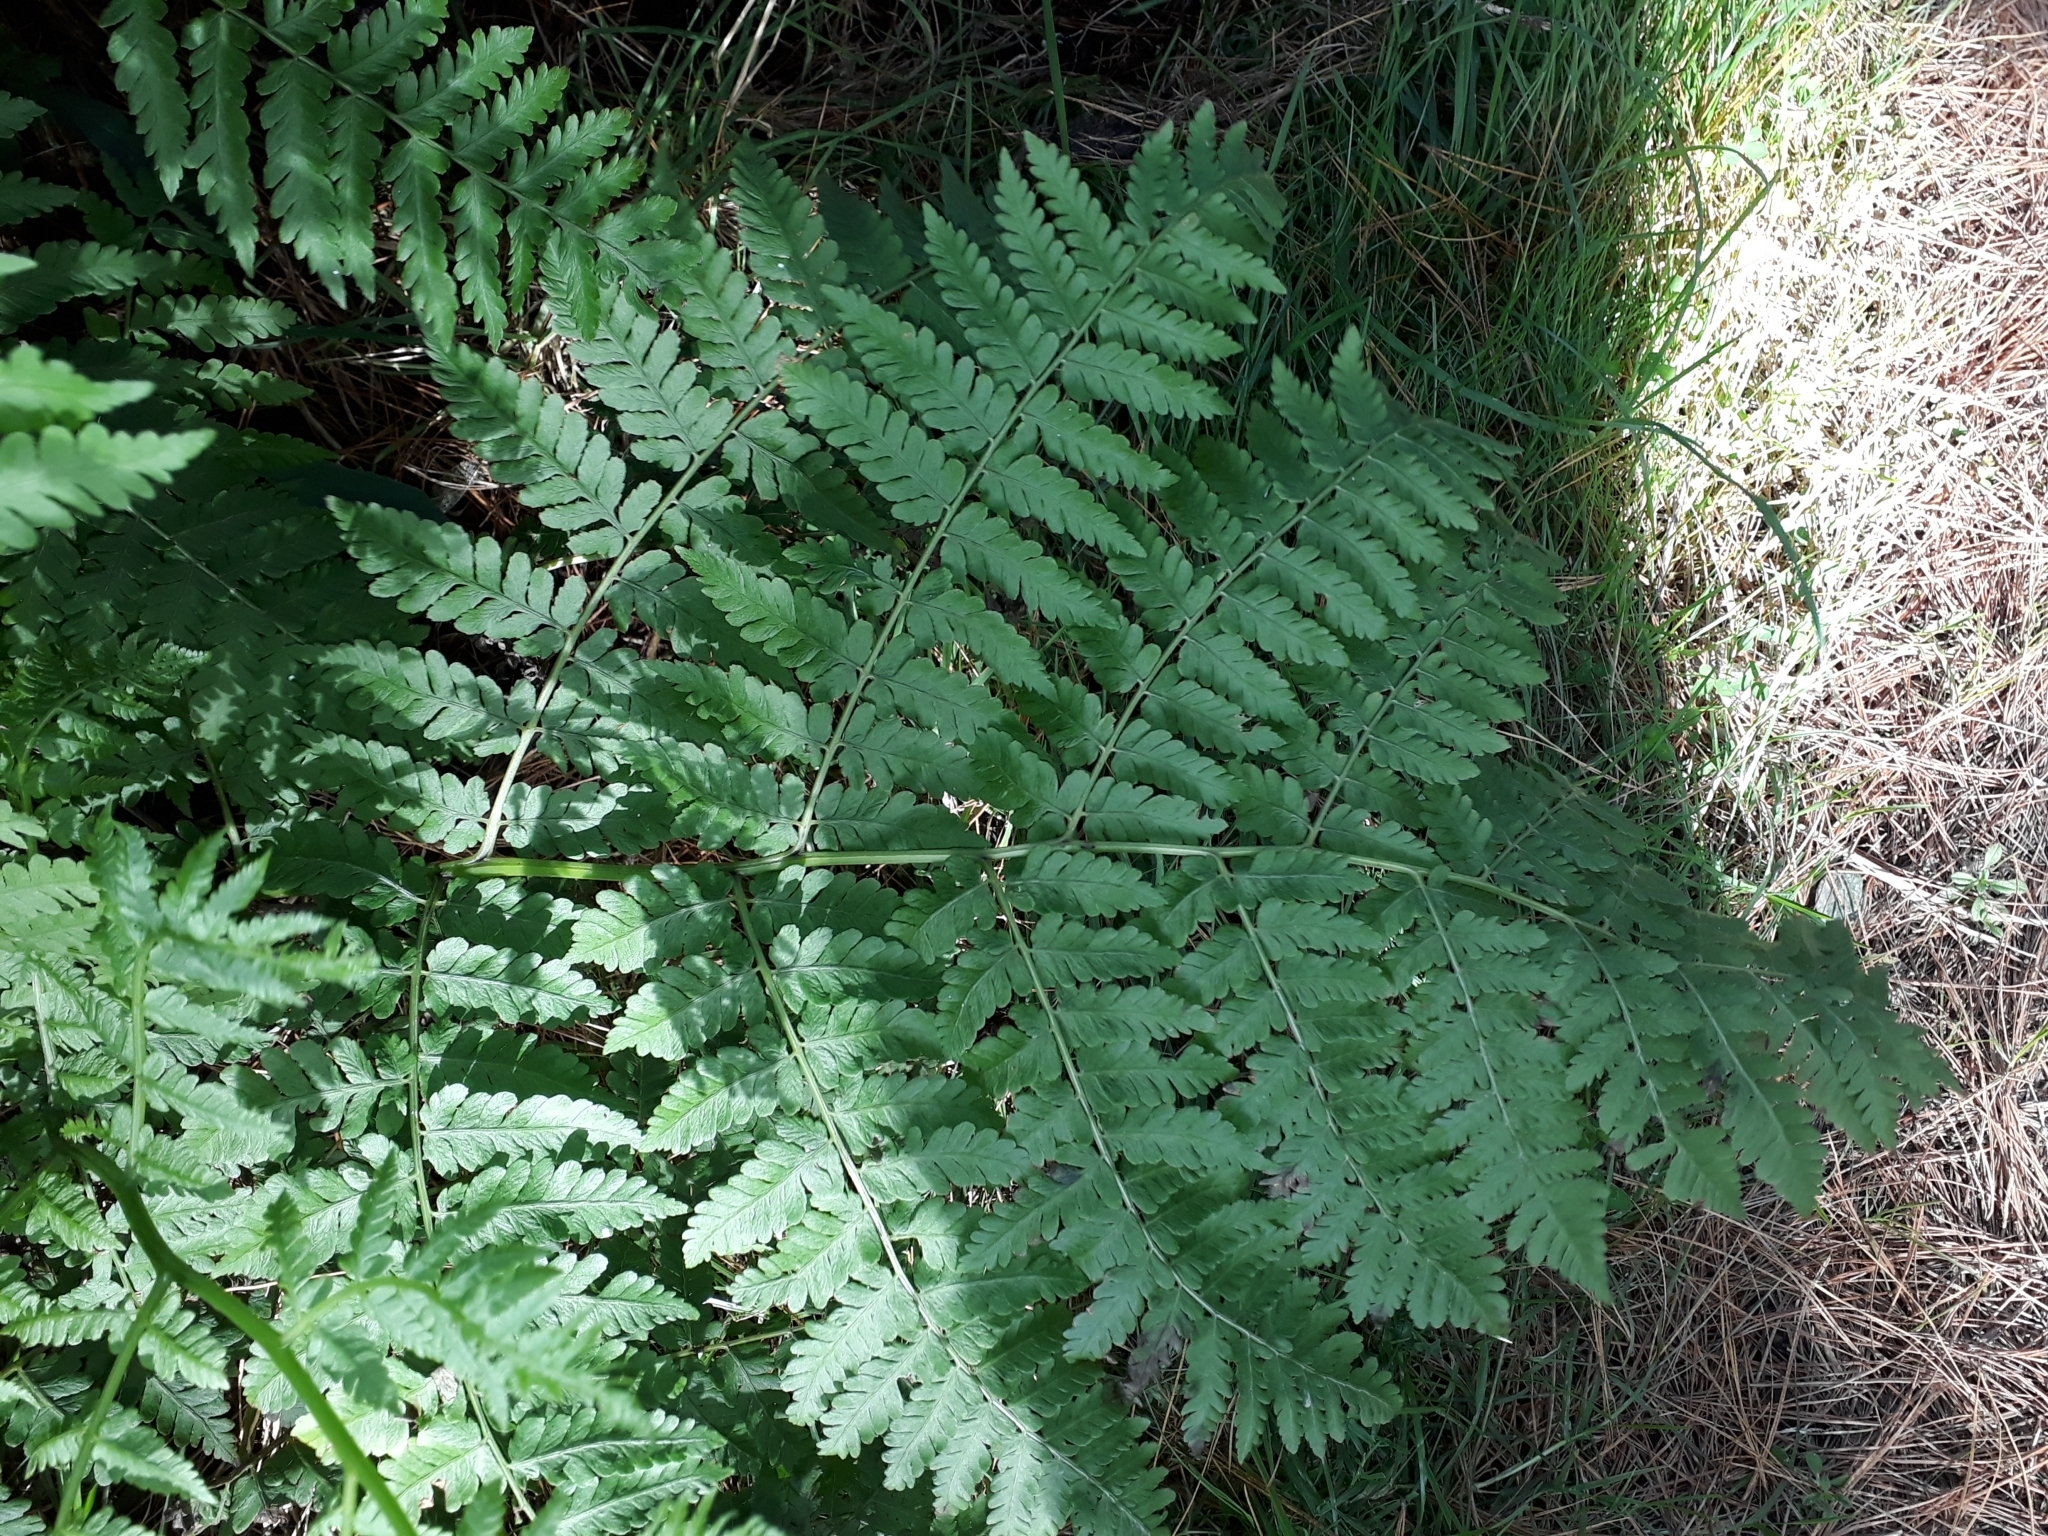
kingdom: Plantae
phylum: Tracheophyta
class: Polypodiopsida
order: Polypodiales
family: Athyriaceae
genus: Diplazium
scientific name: Diplazium australe
